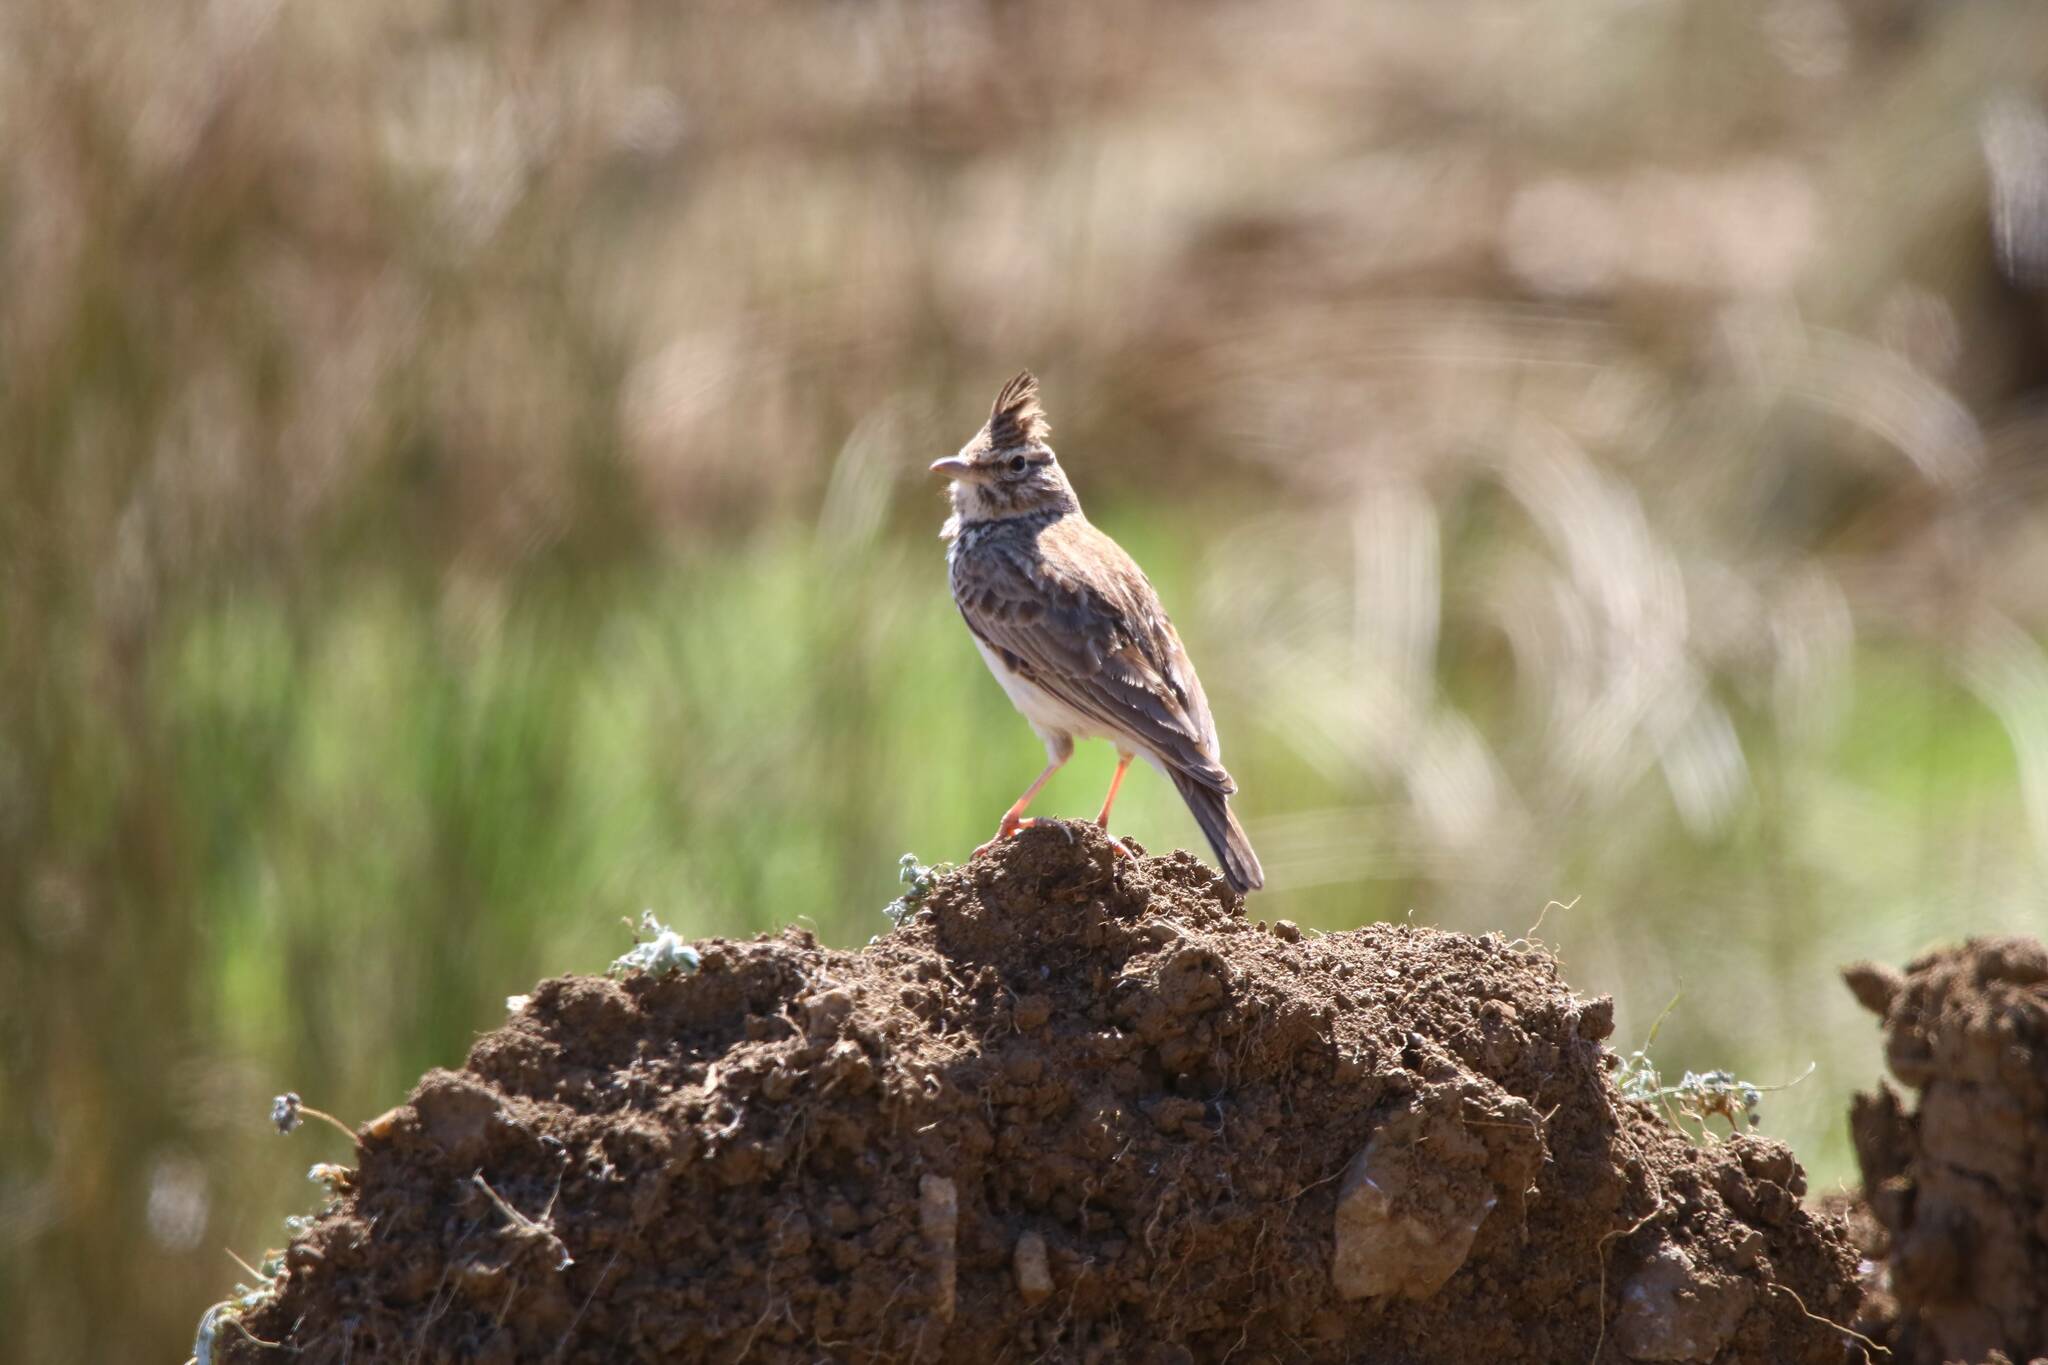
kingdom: Animalia
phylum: Chordata
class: Aves
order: Passeriformes
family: Alaudidae
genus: Galerida
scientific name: Galerida cristata
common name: Crested lark
